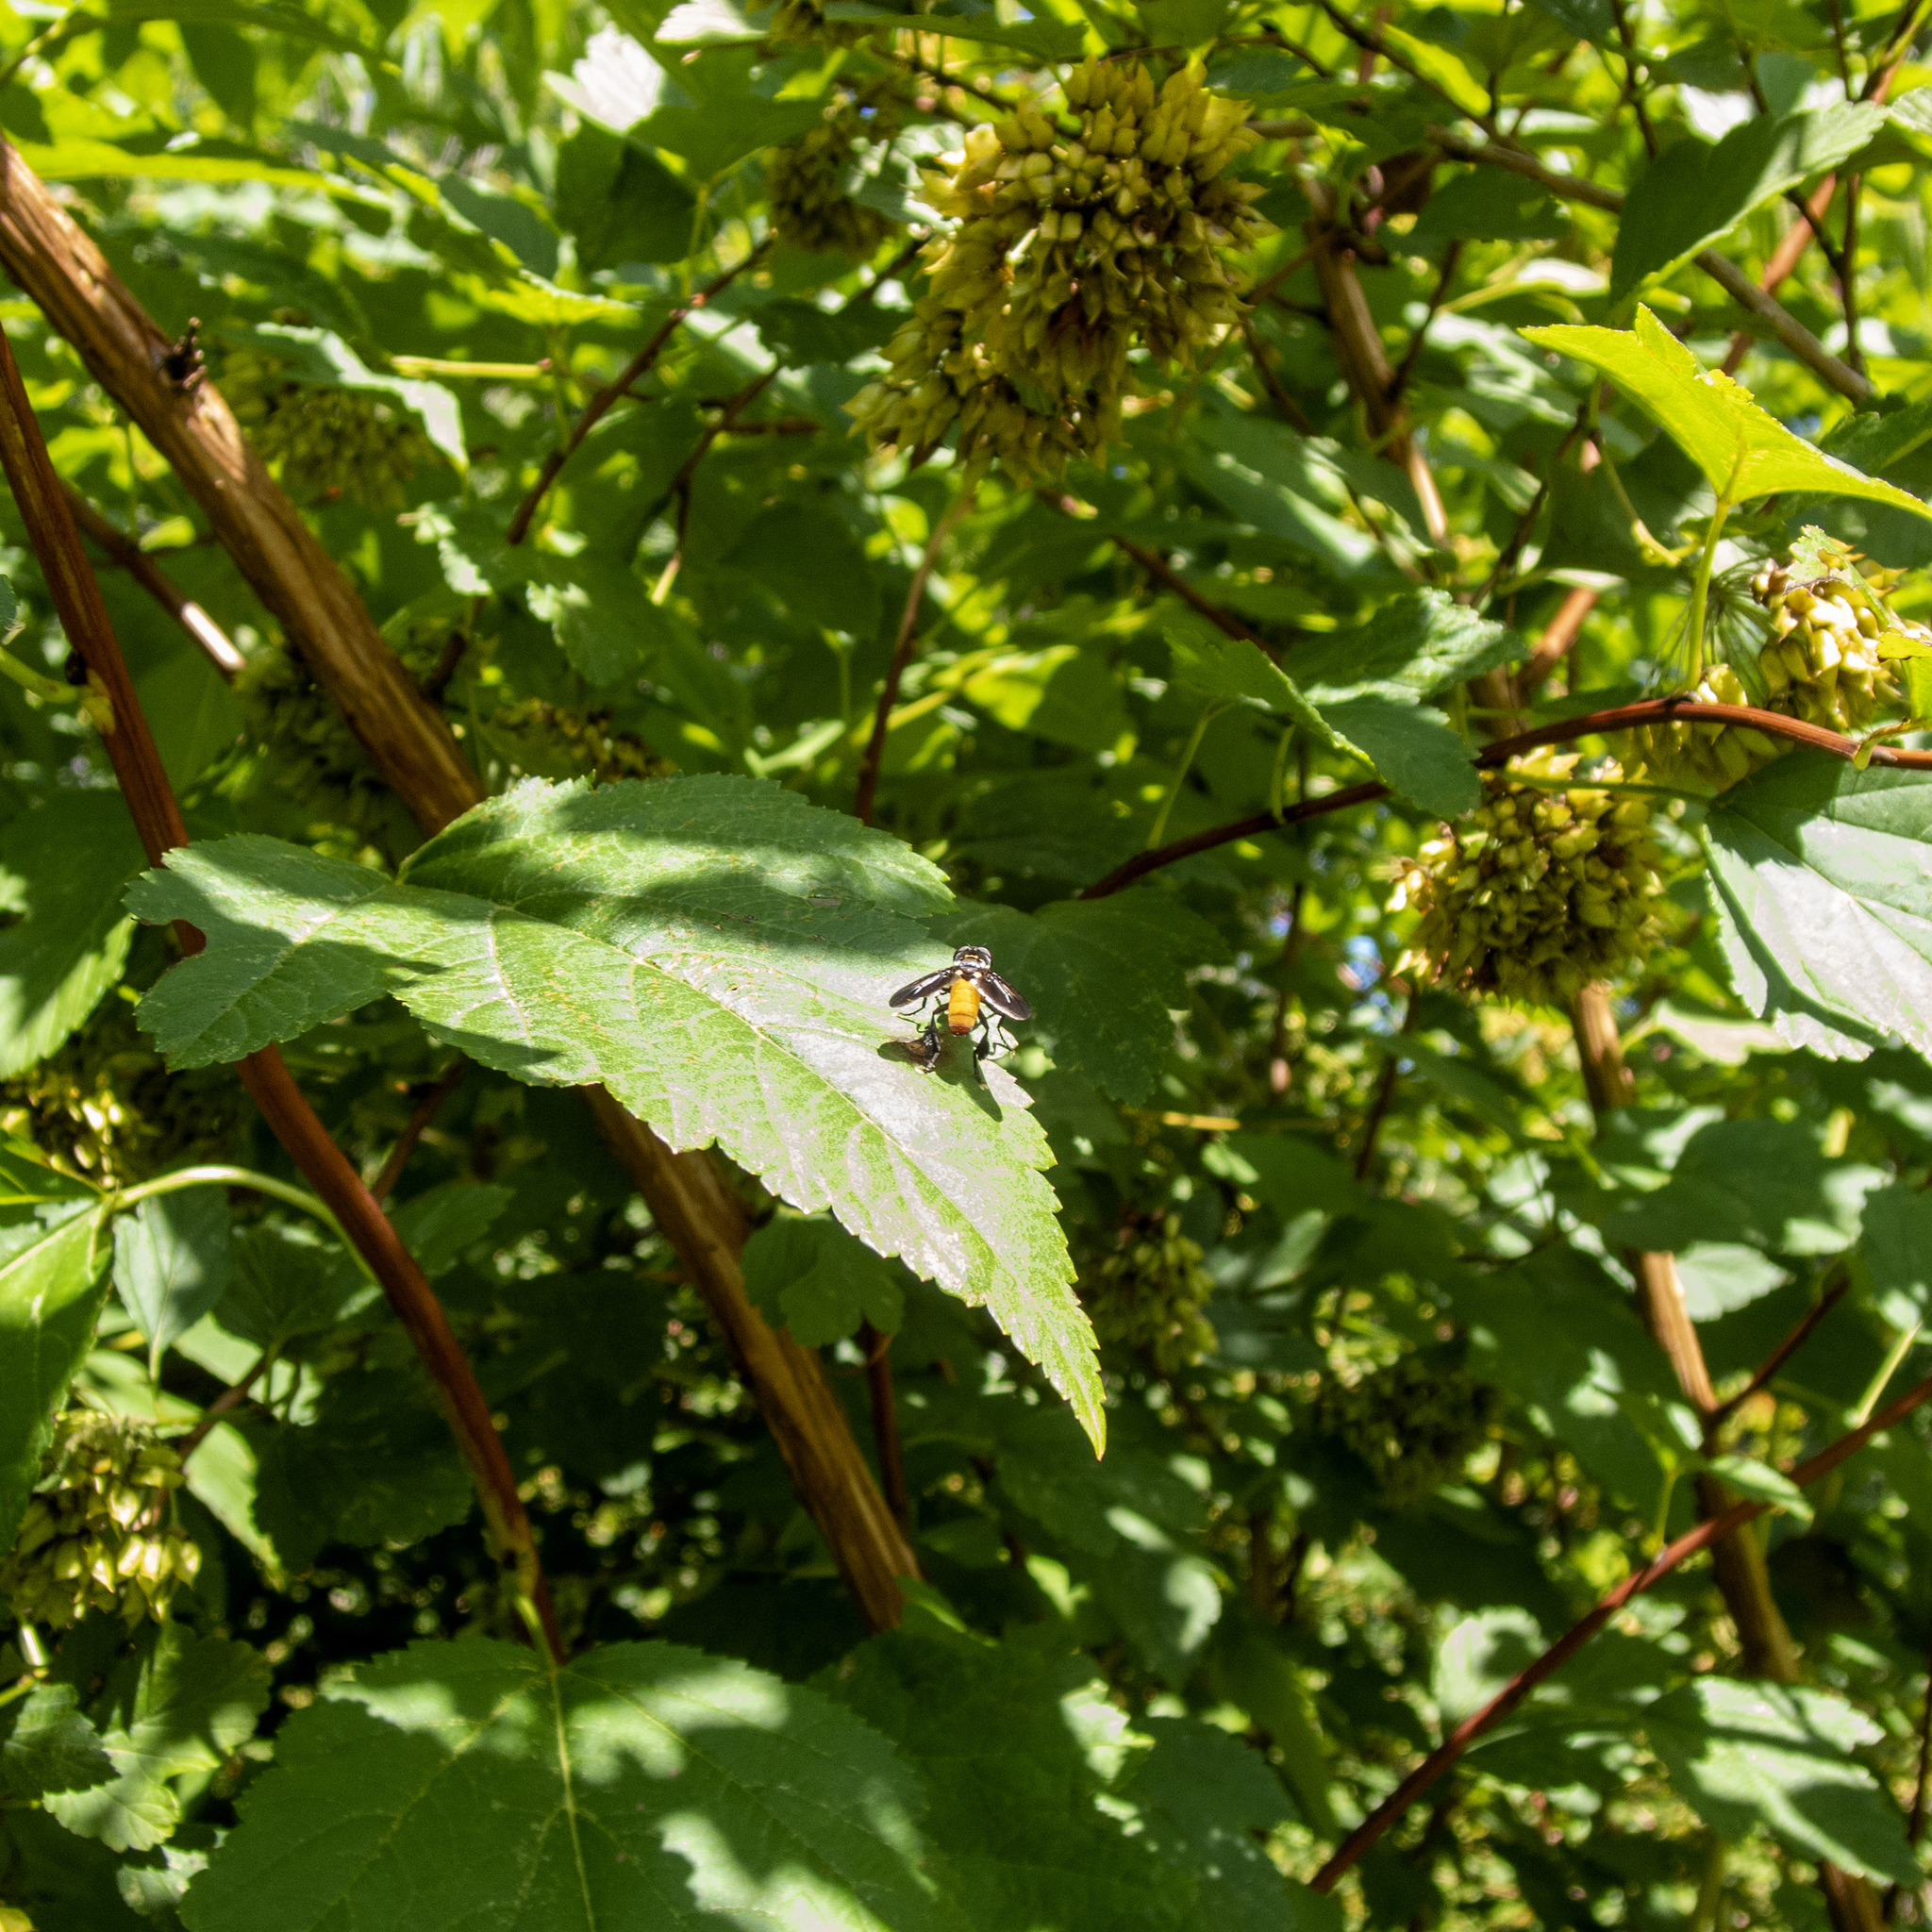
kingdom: Animalia
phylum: Arthropoda
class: Insecta
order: Diptera
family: Tachinidae
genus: Trichopoda
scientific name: Trichopoda pennipes
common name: Tachinid fly
